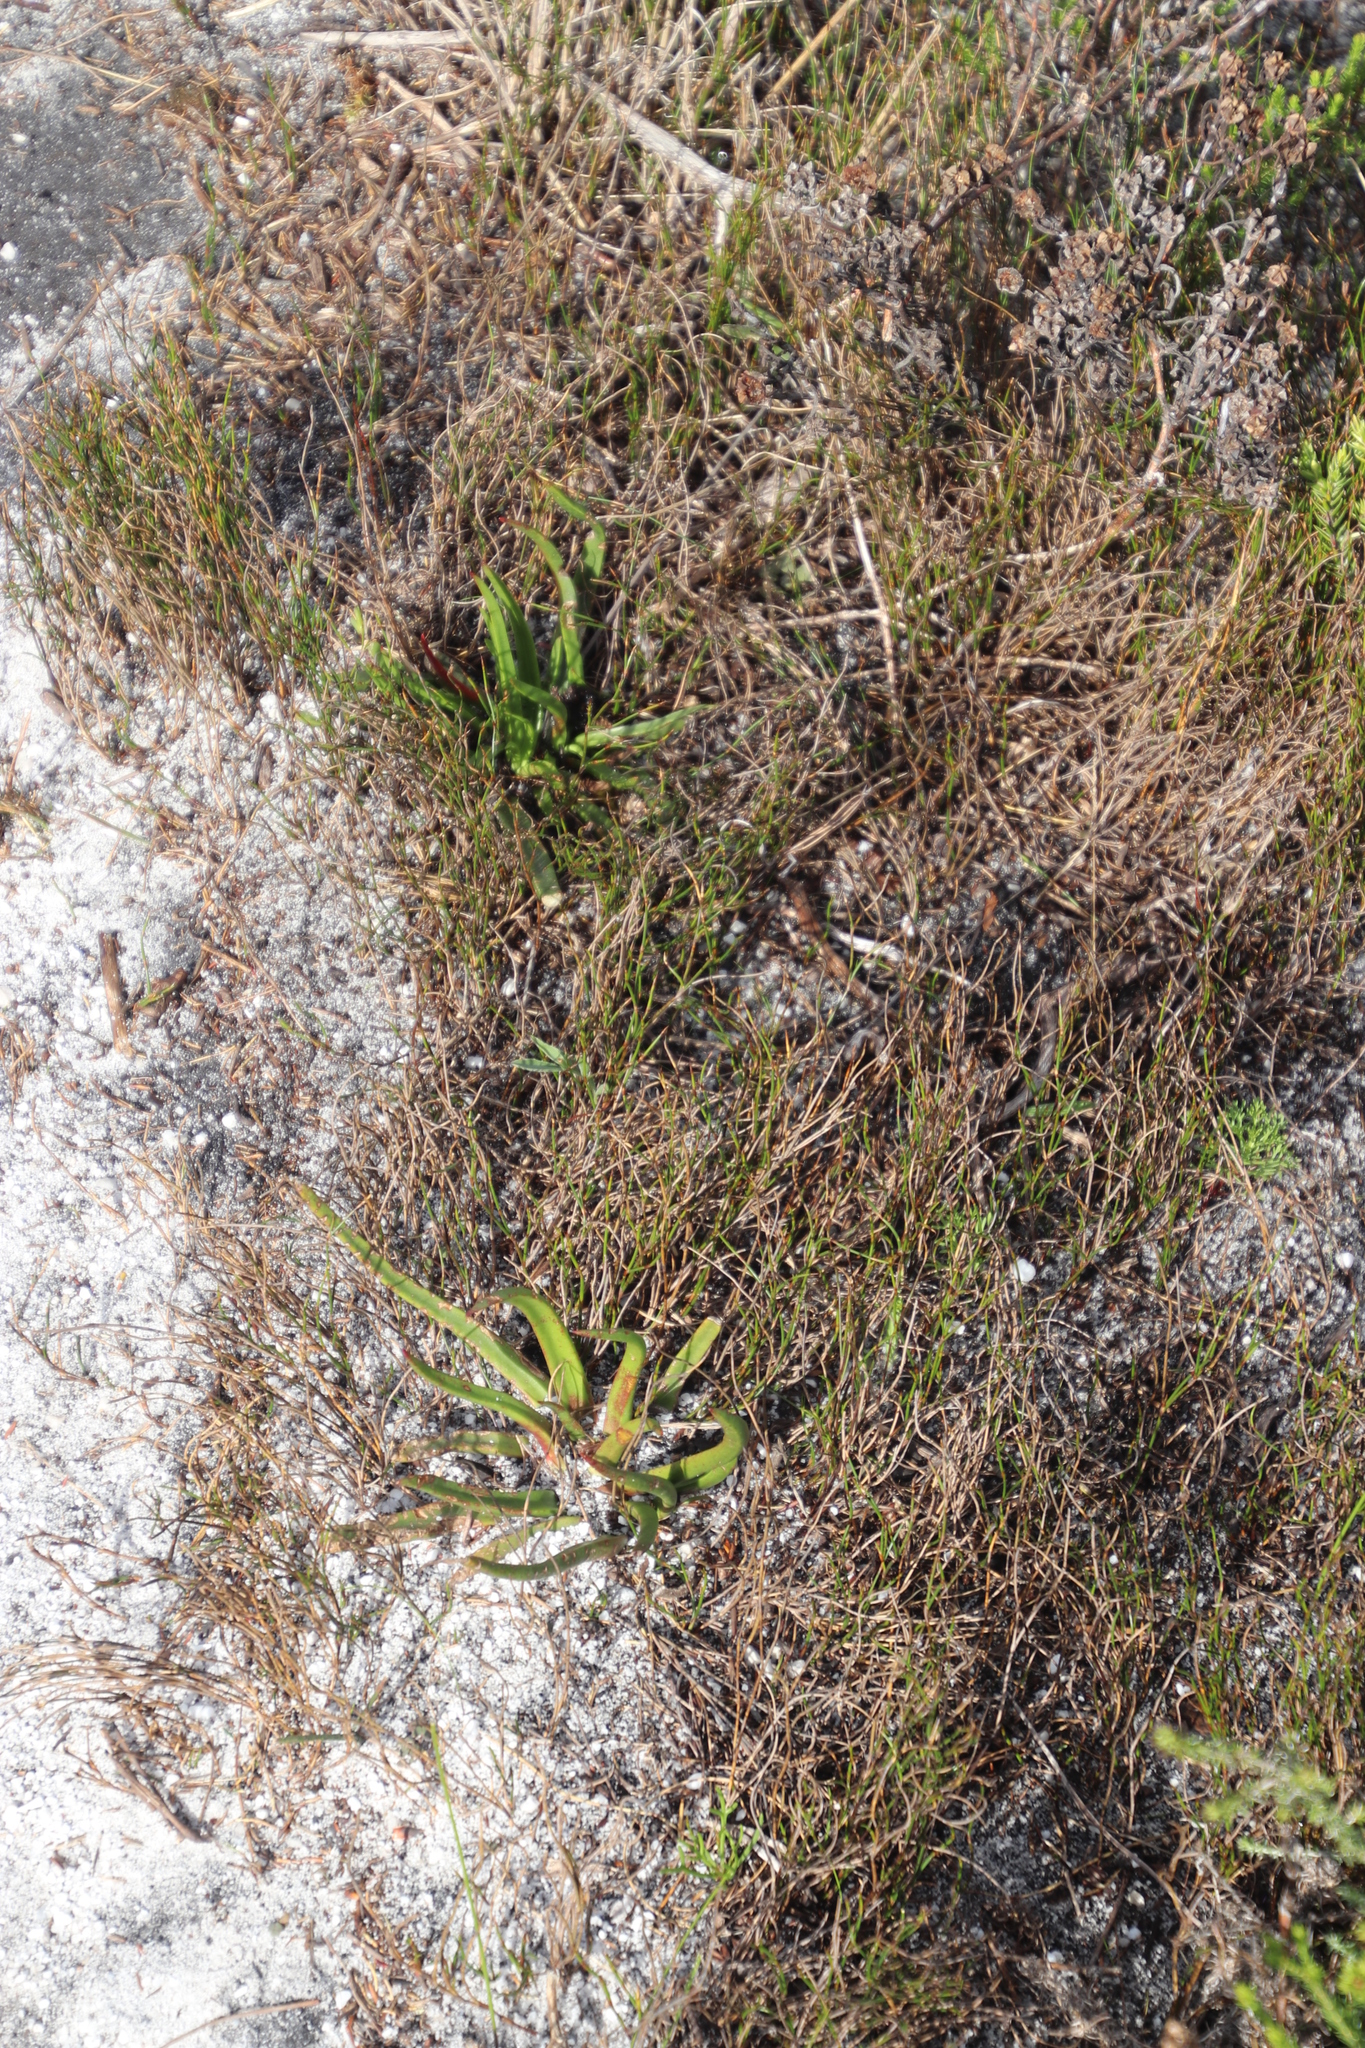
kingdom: Plantae
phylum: Tracheophyta
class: Magnoliopsida
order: Saxifragales
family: Crassulaceae
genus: Crassula
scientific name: Crassula nudicaulis
